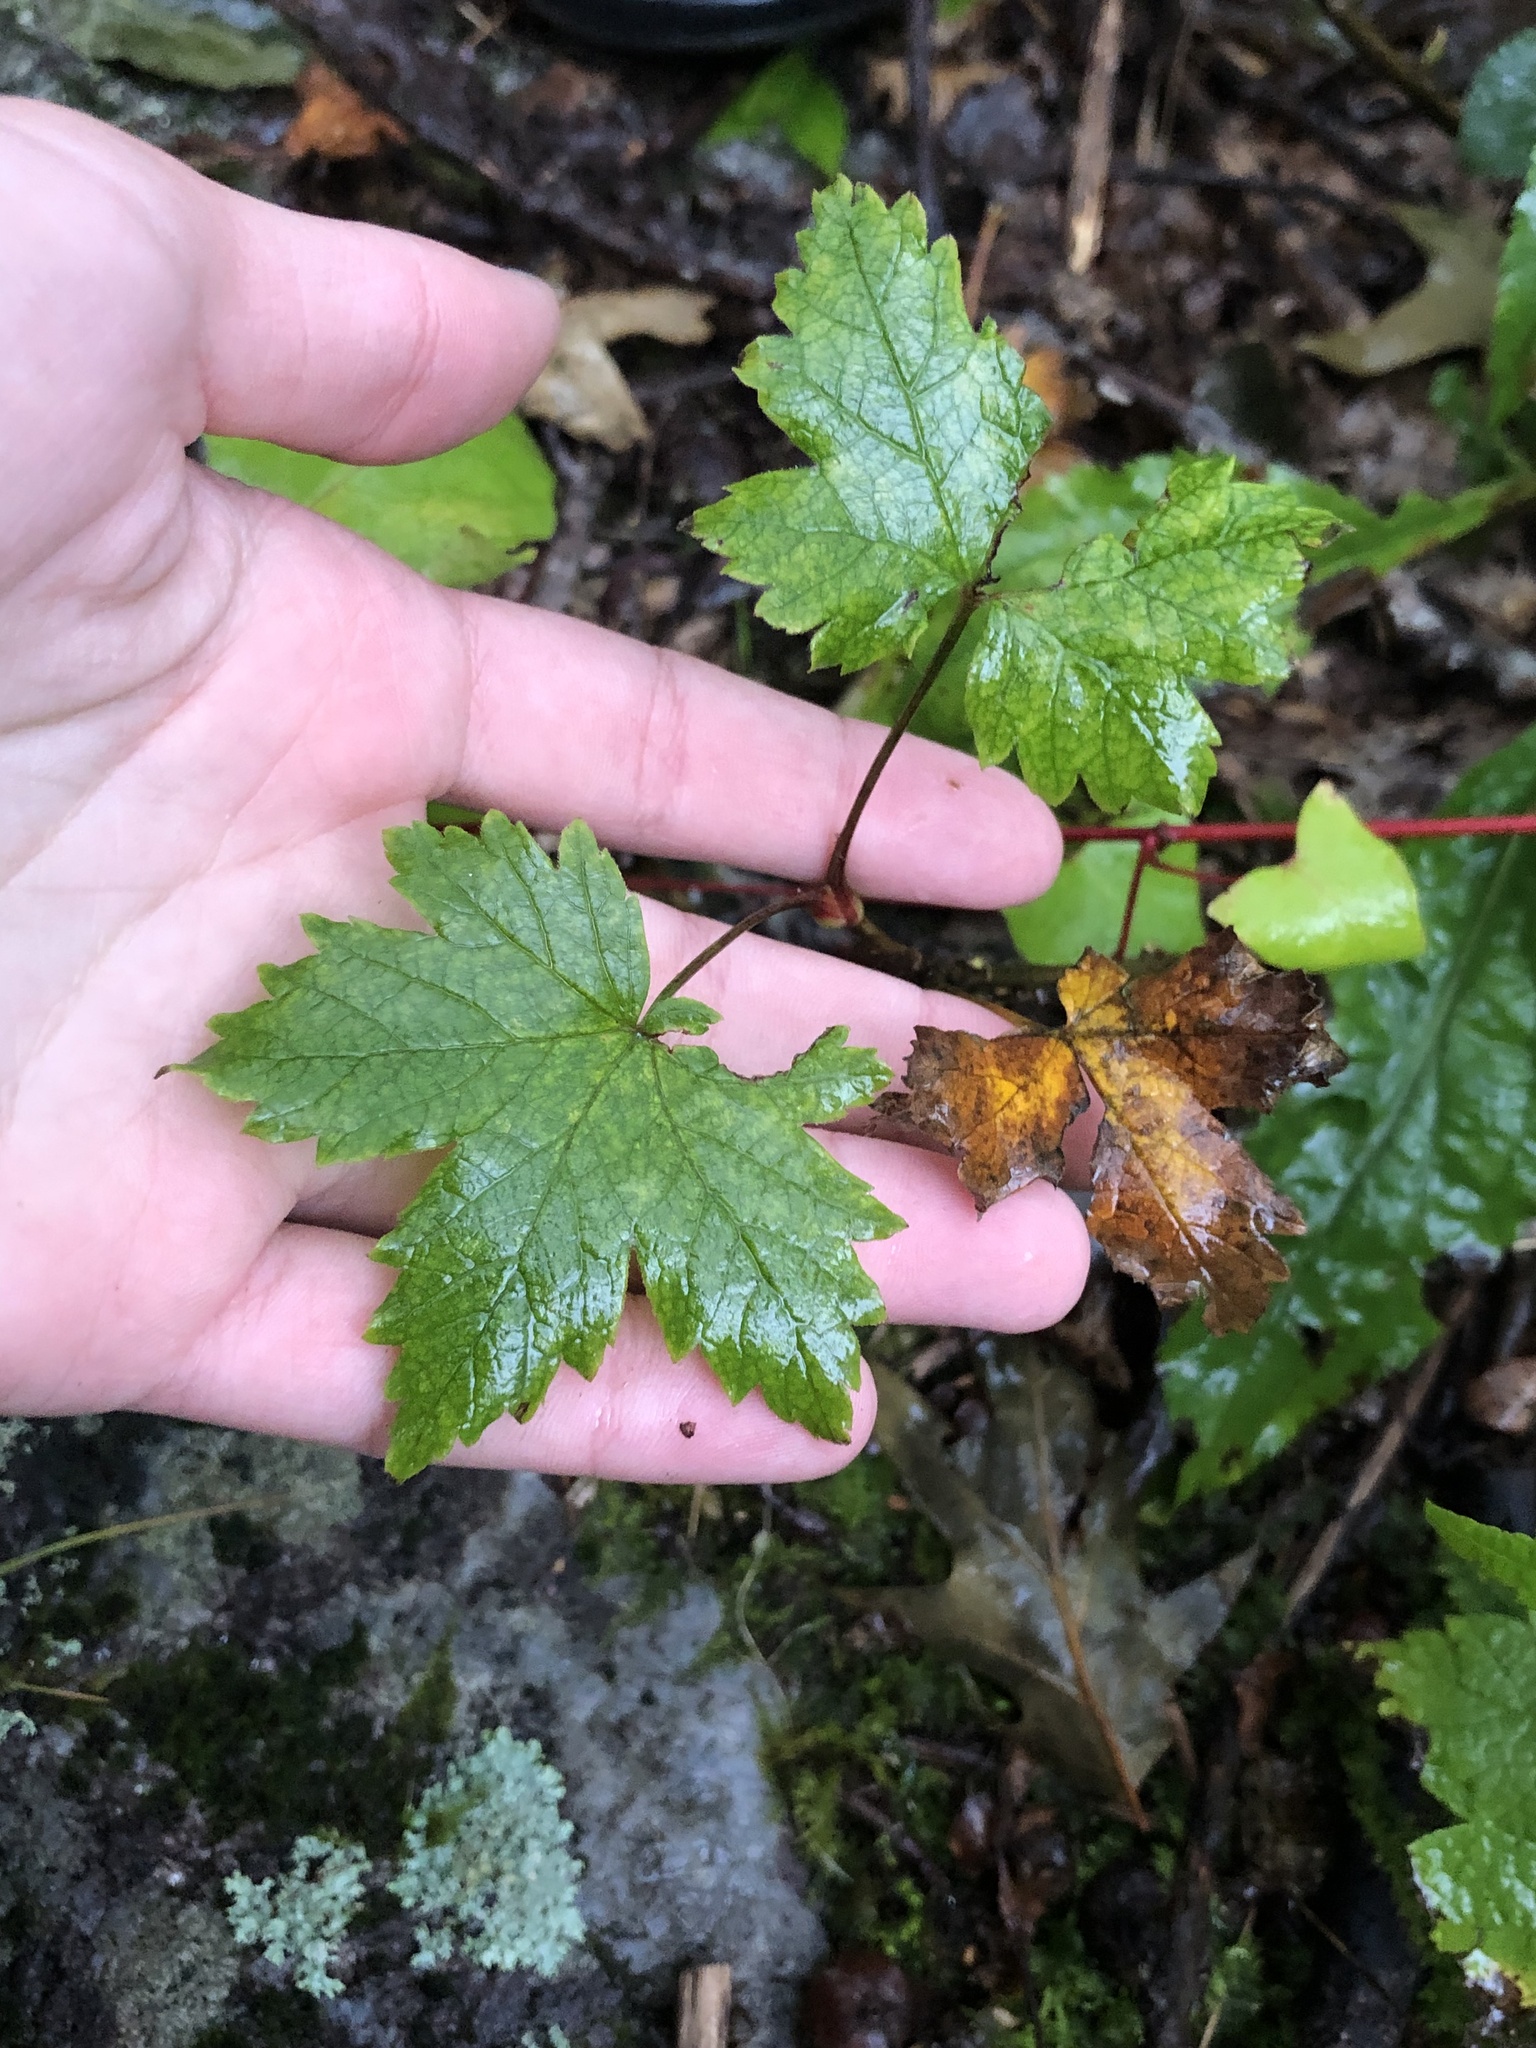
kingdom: Plantae
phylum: Tracheophyta
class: Magnoliopsida
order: Saxifragales
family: Grossulariaceae
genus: Ribes
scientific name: Ribes glandulosum
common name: Skunk currant
